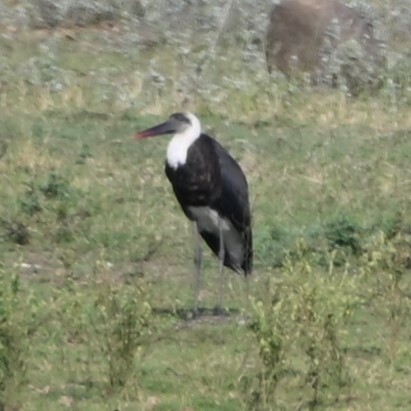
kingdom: Animalia
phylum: Chordata
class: Aves
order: Ciconiiformes
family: Ciconiidae
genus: Ciconia
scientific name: Ciconia microscelis
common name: African woollyneck
